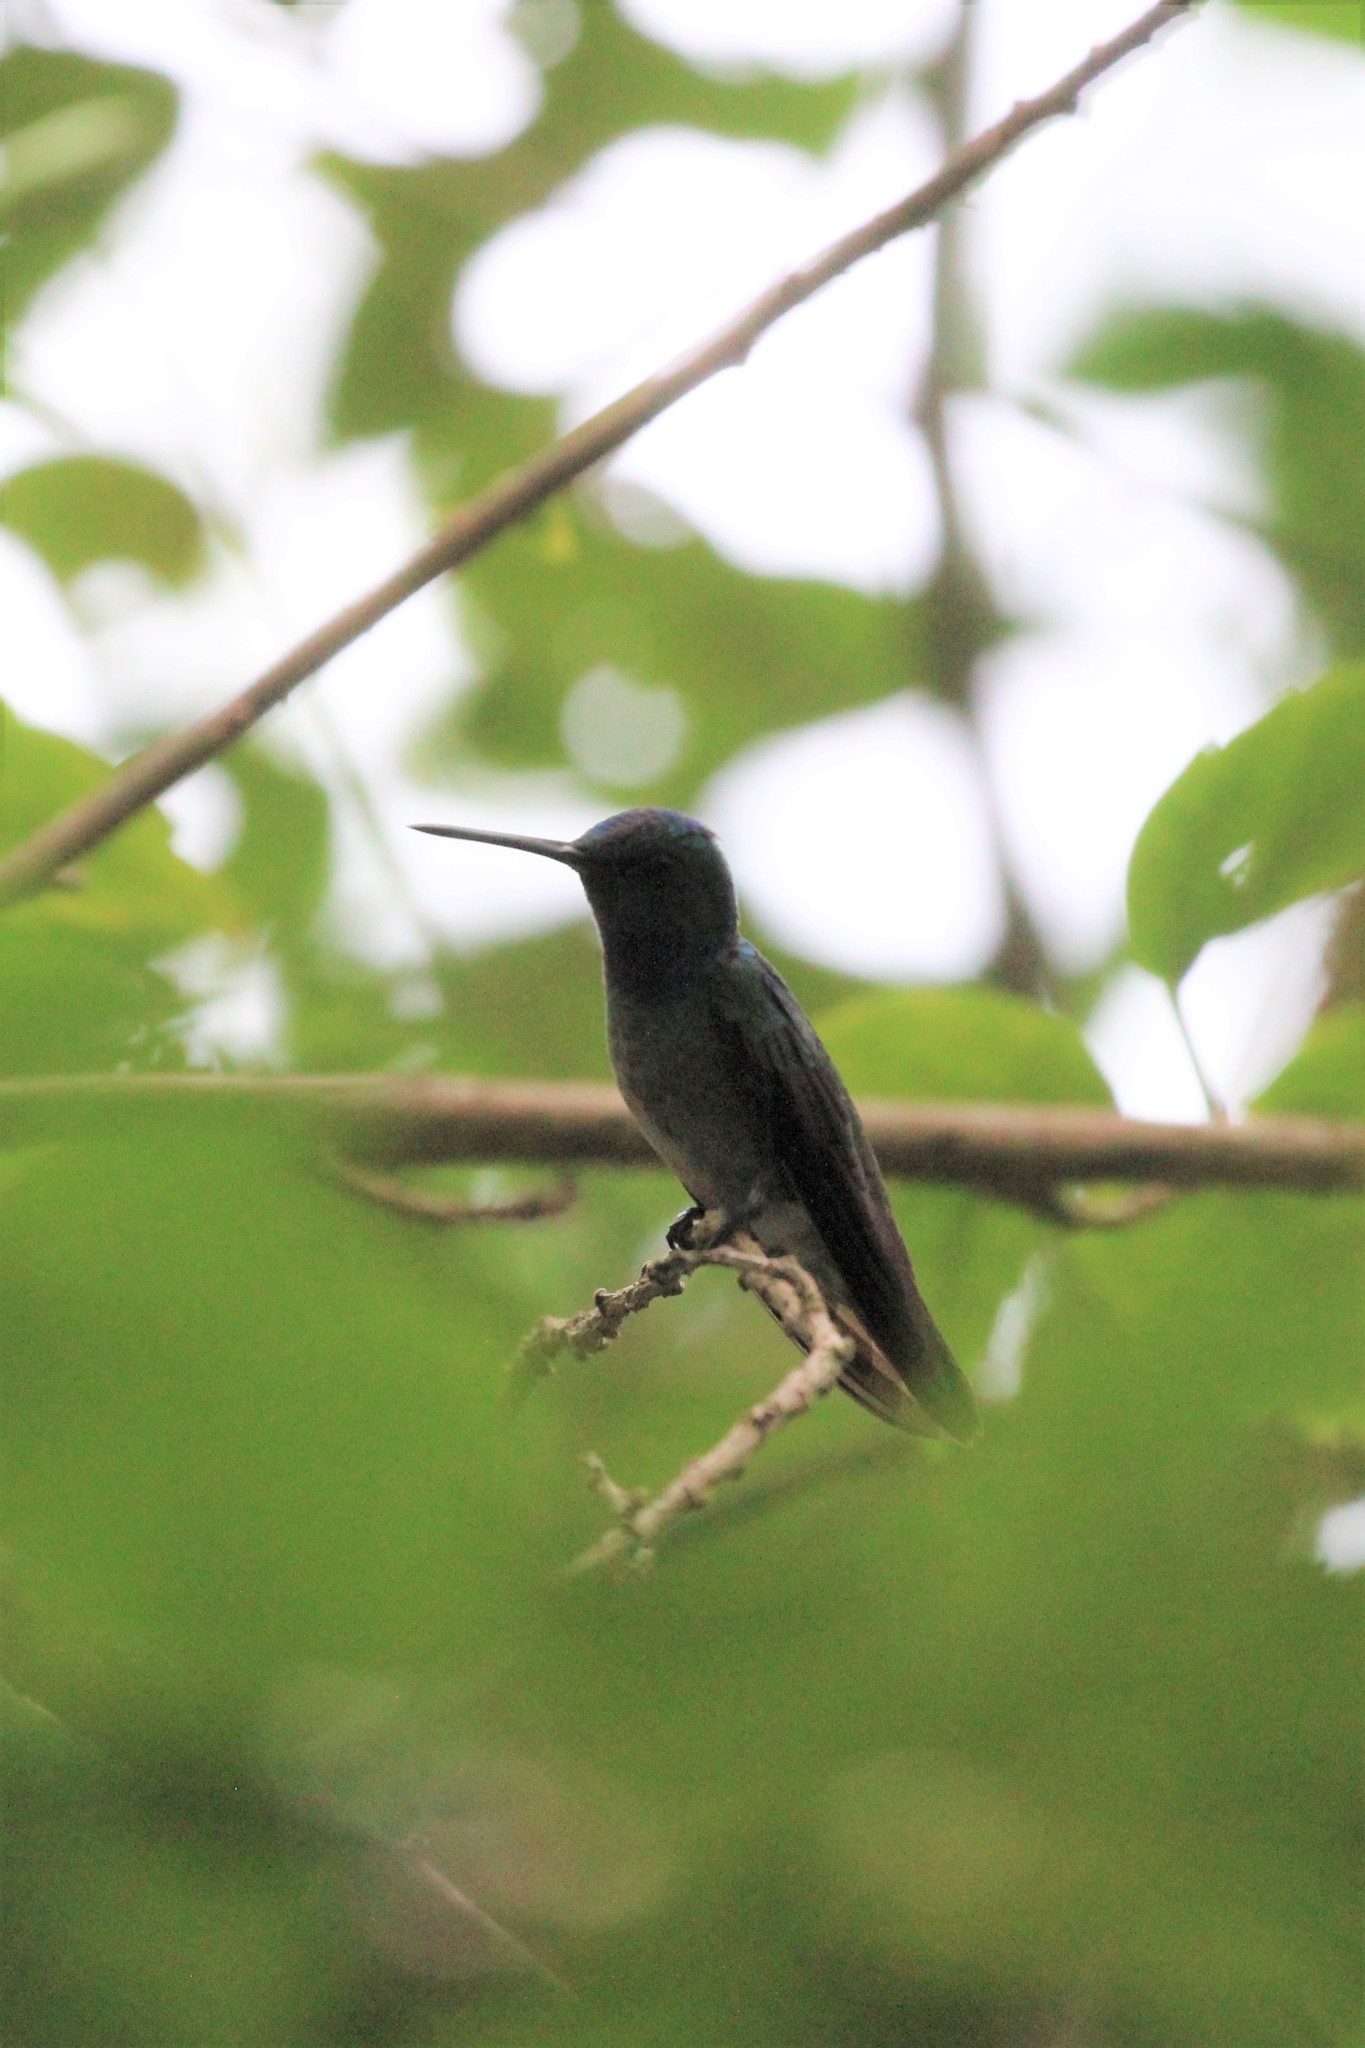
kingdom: Animalia
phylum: Chordata
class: Aves
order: Apodiformes
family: Trochilidae
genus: Polyerata
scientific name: Polyerata decora
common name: Charming hummingbird
